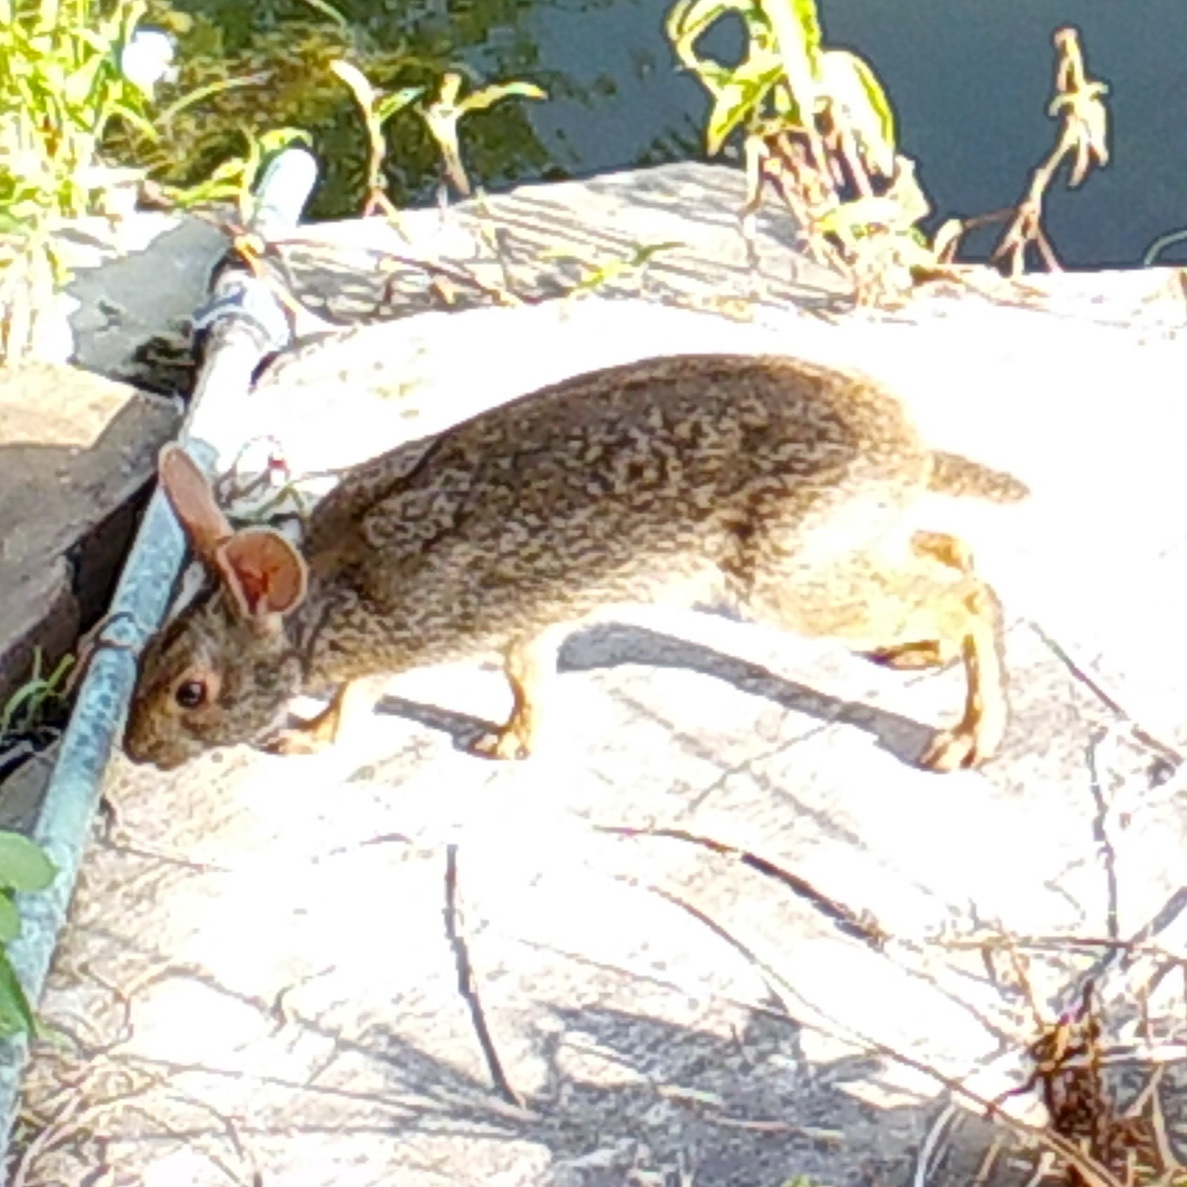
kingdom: Animalia
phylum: Chordata
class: Mammalia
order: Lagomorpha
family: Leporidae
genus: Sylvilagus
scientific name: Sylvilagus aquaticus
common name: Swamp rabbit
